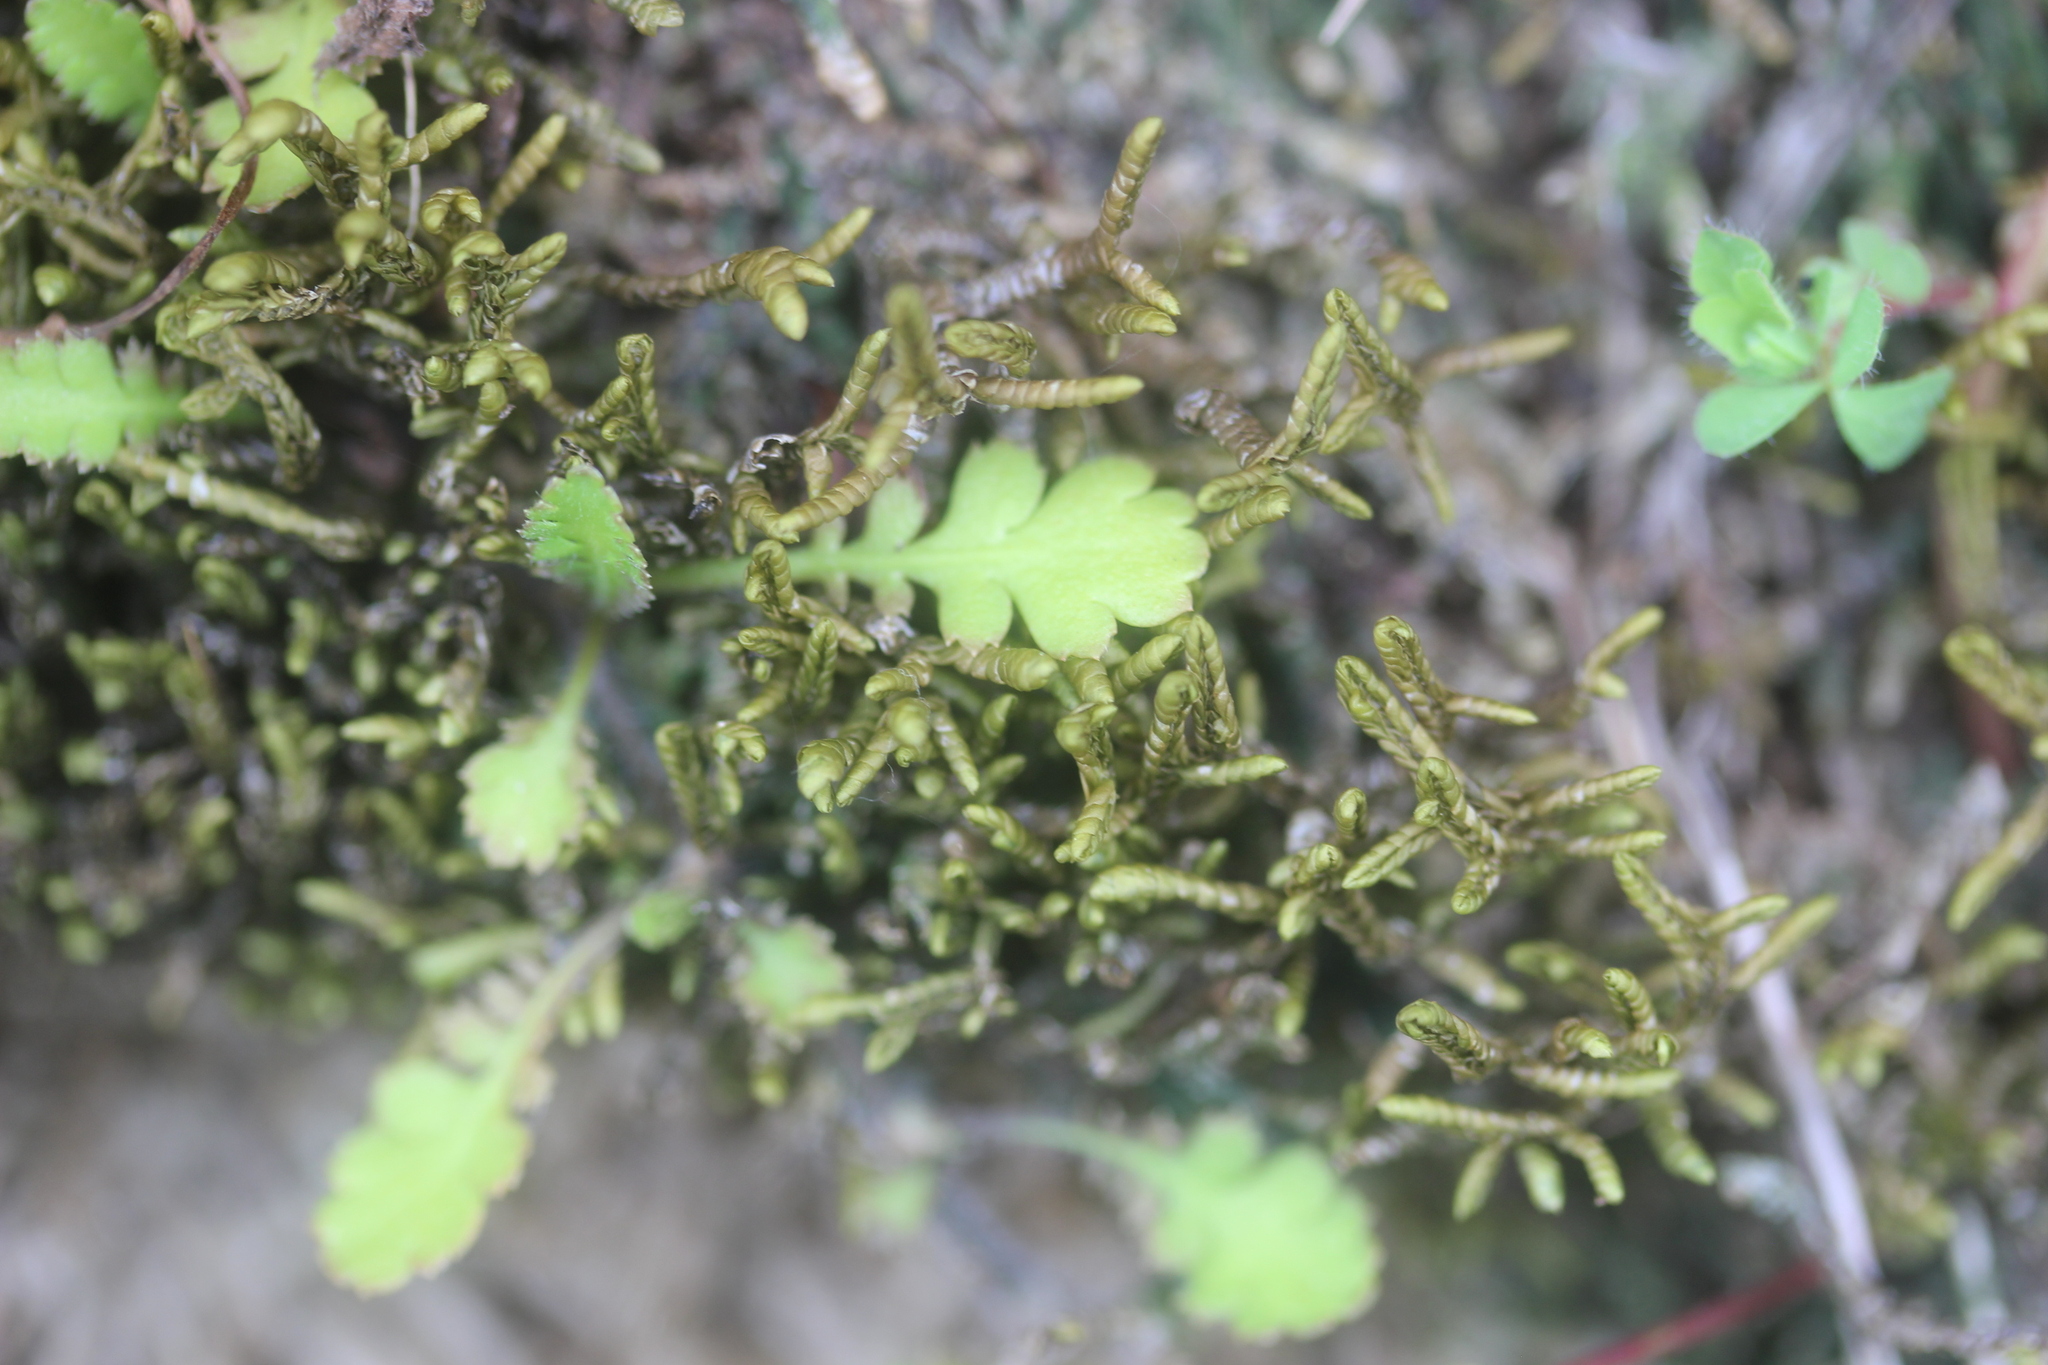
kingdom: Plantae
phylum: Tracheophyta
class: Magnoliopsida
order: Asterales
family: Asteraceae
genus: Leptinella
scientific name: Leptinella squalida
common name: New zealand brass-buttons
